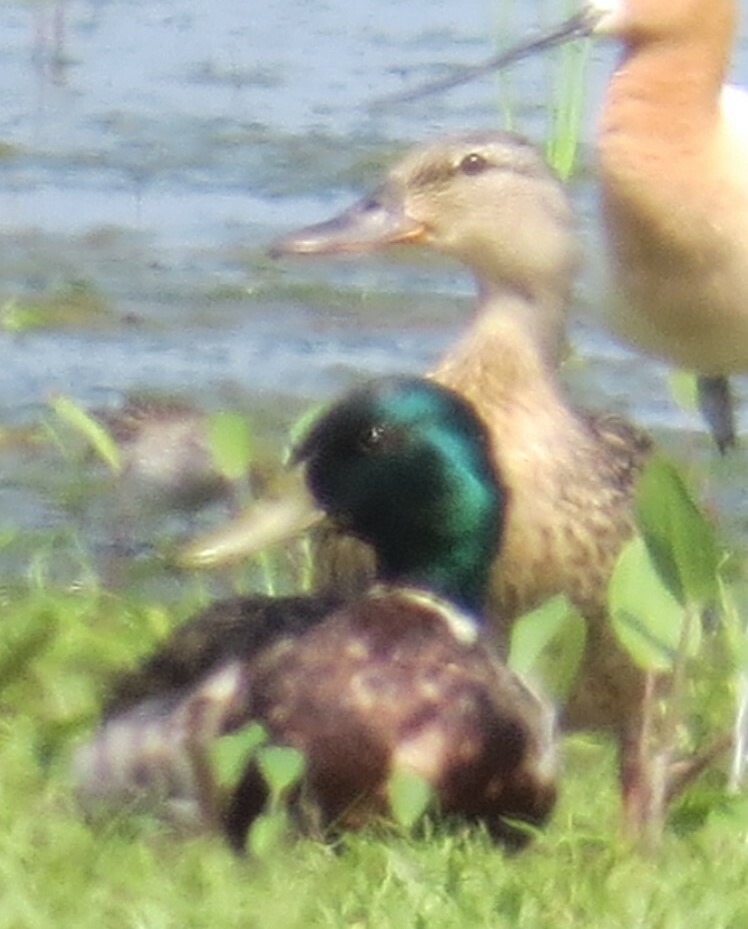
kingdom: Animalia
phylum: Chordata
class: Aves
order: Anseriformes
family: Anatidae
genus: Anas
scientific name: Anas platyrhynchos
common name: Mallard
